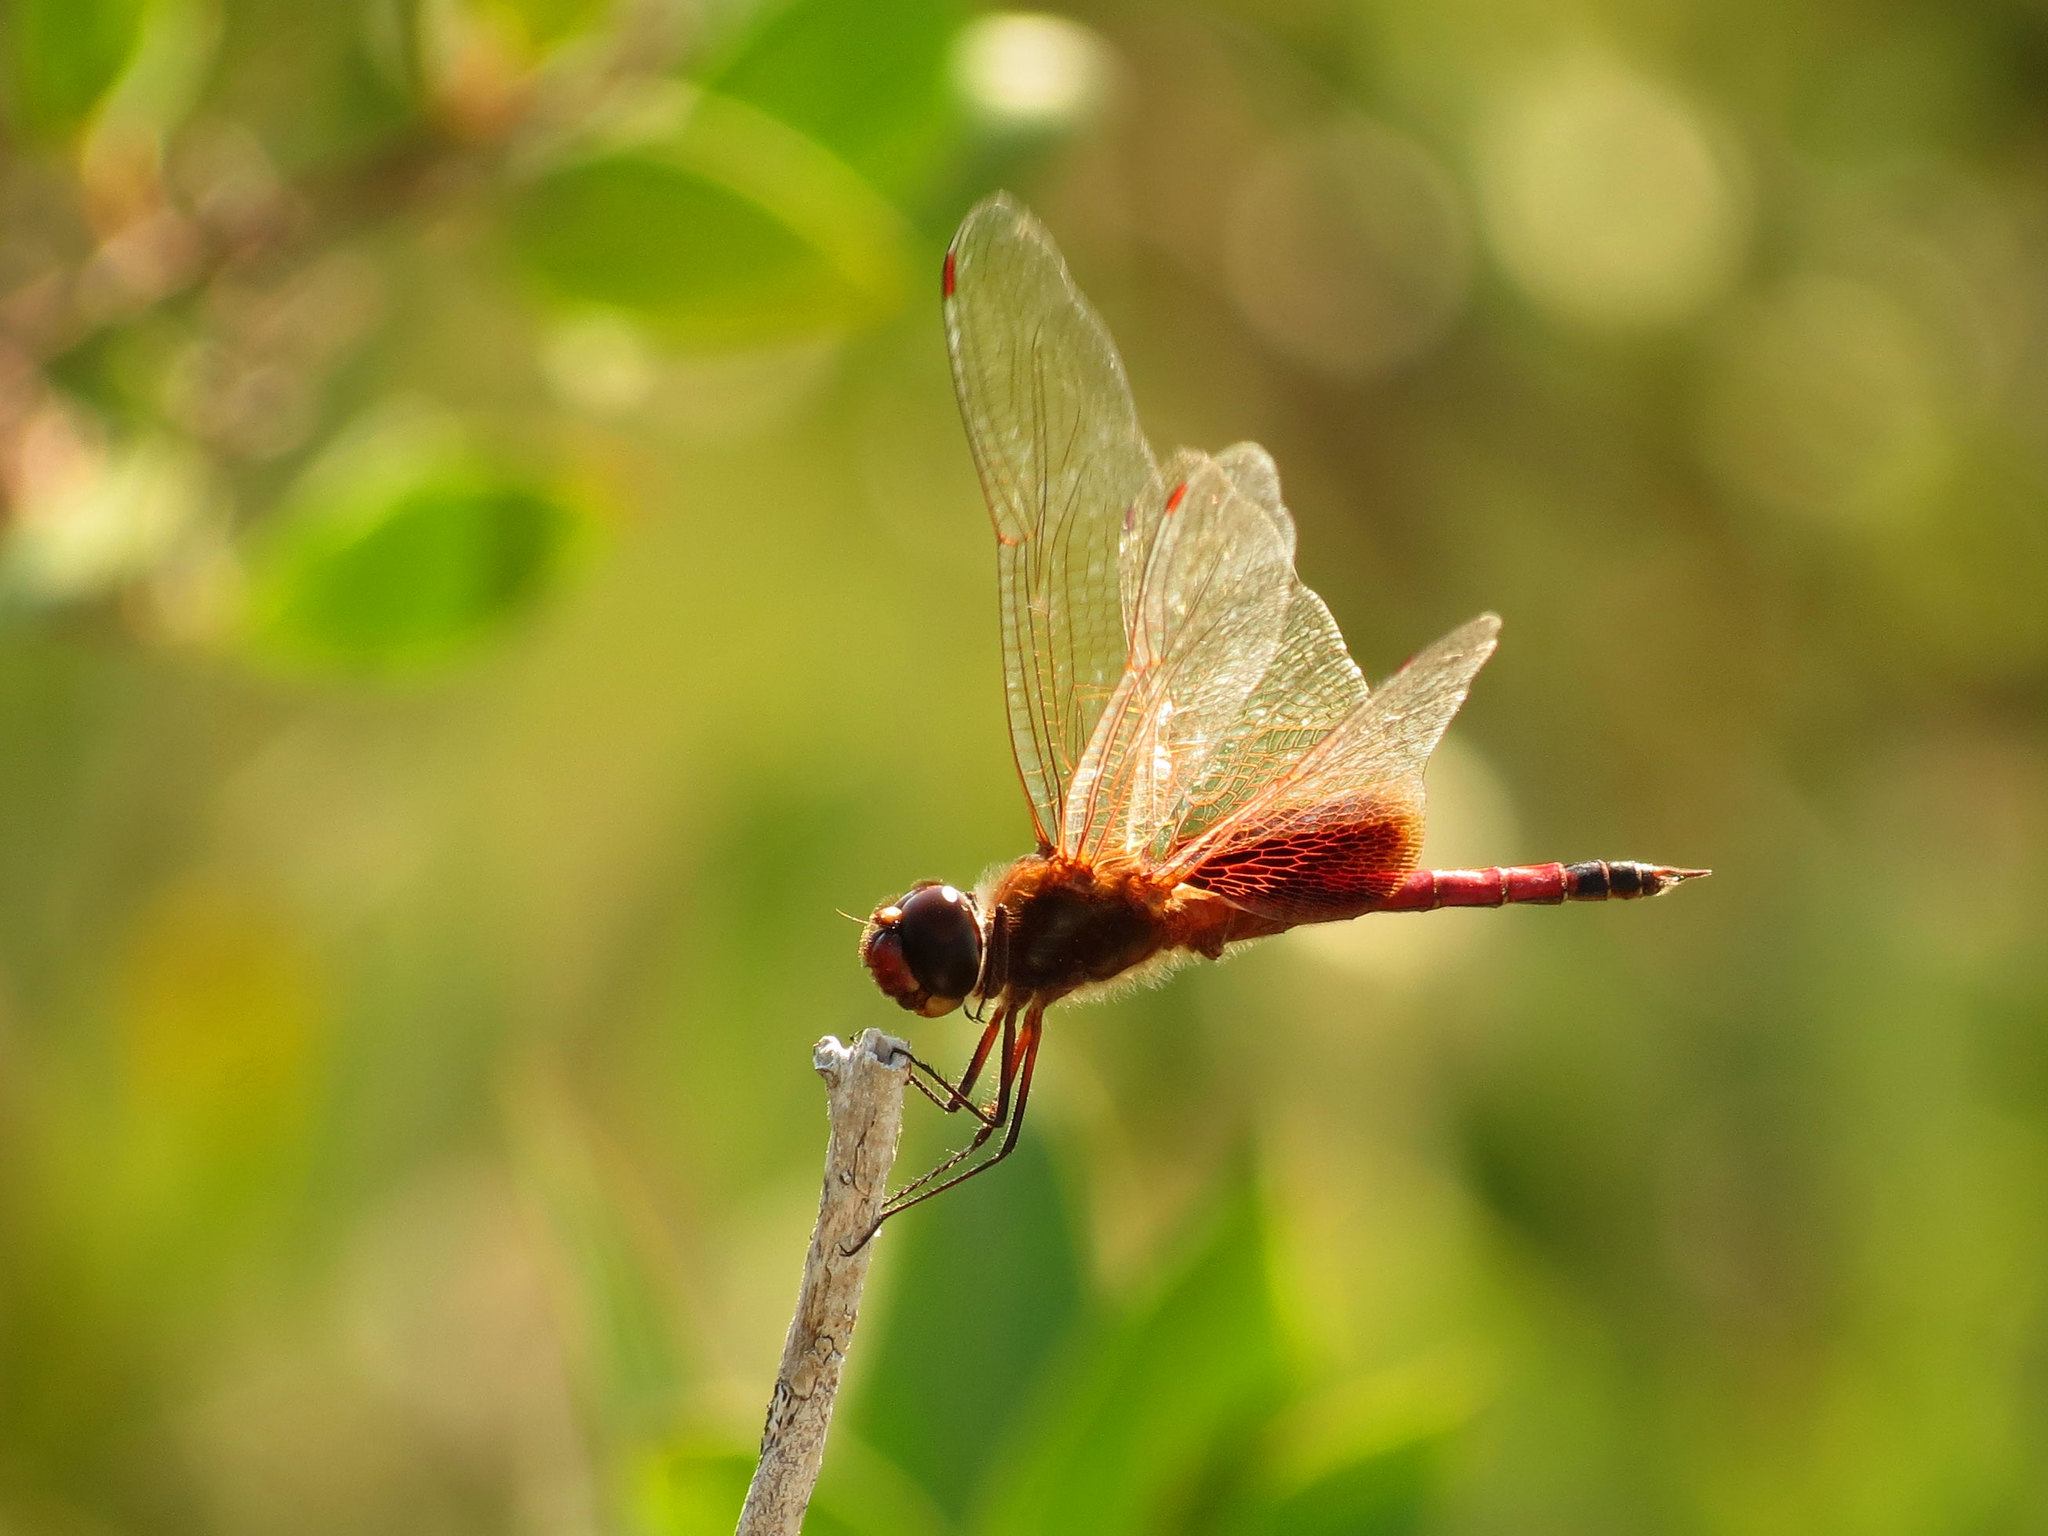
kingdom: Animalia
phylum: Arthropoda
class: Insecta
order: Odonata
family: Libellulidae
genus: Tramea
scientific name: Tramea darwini
